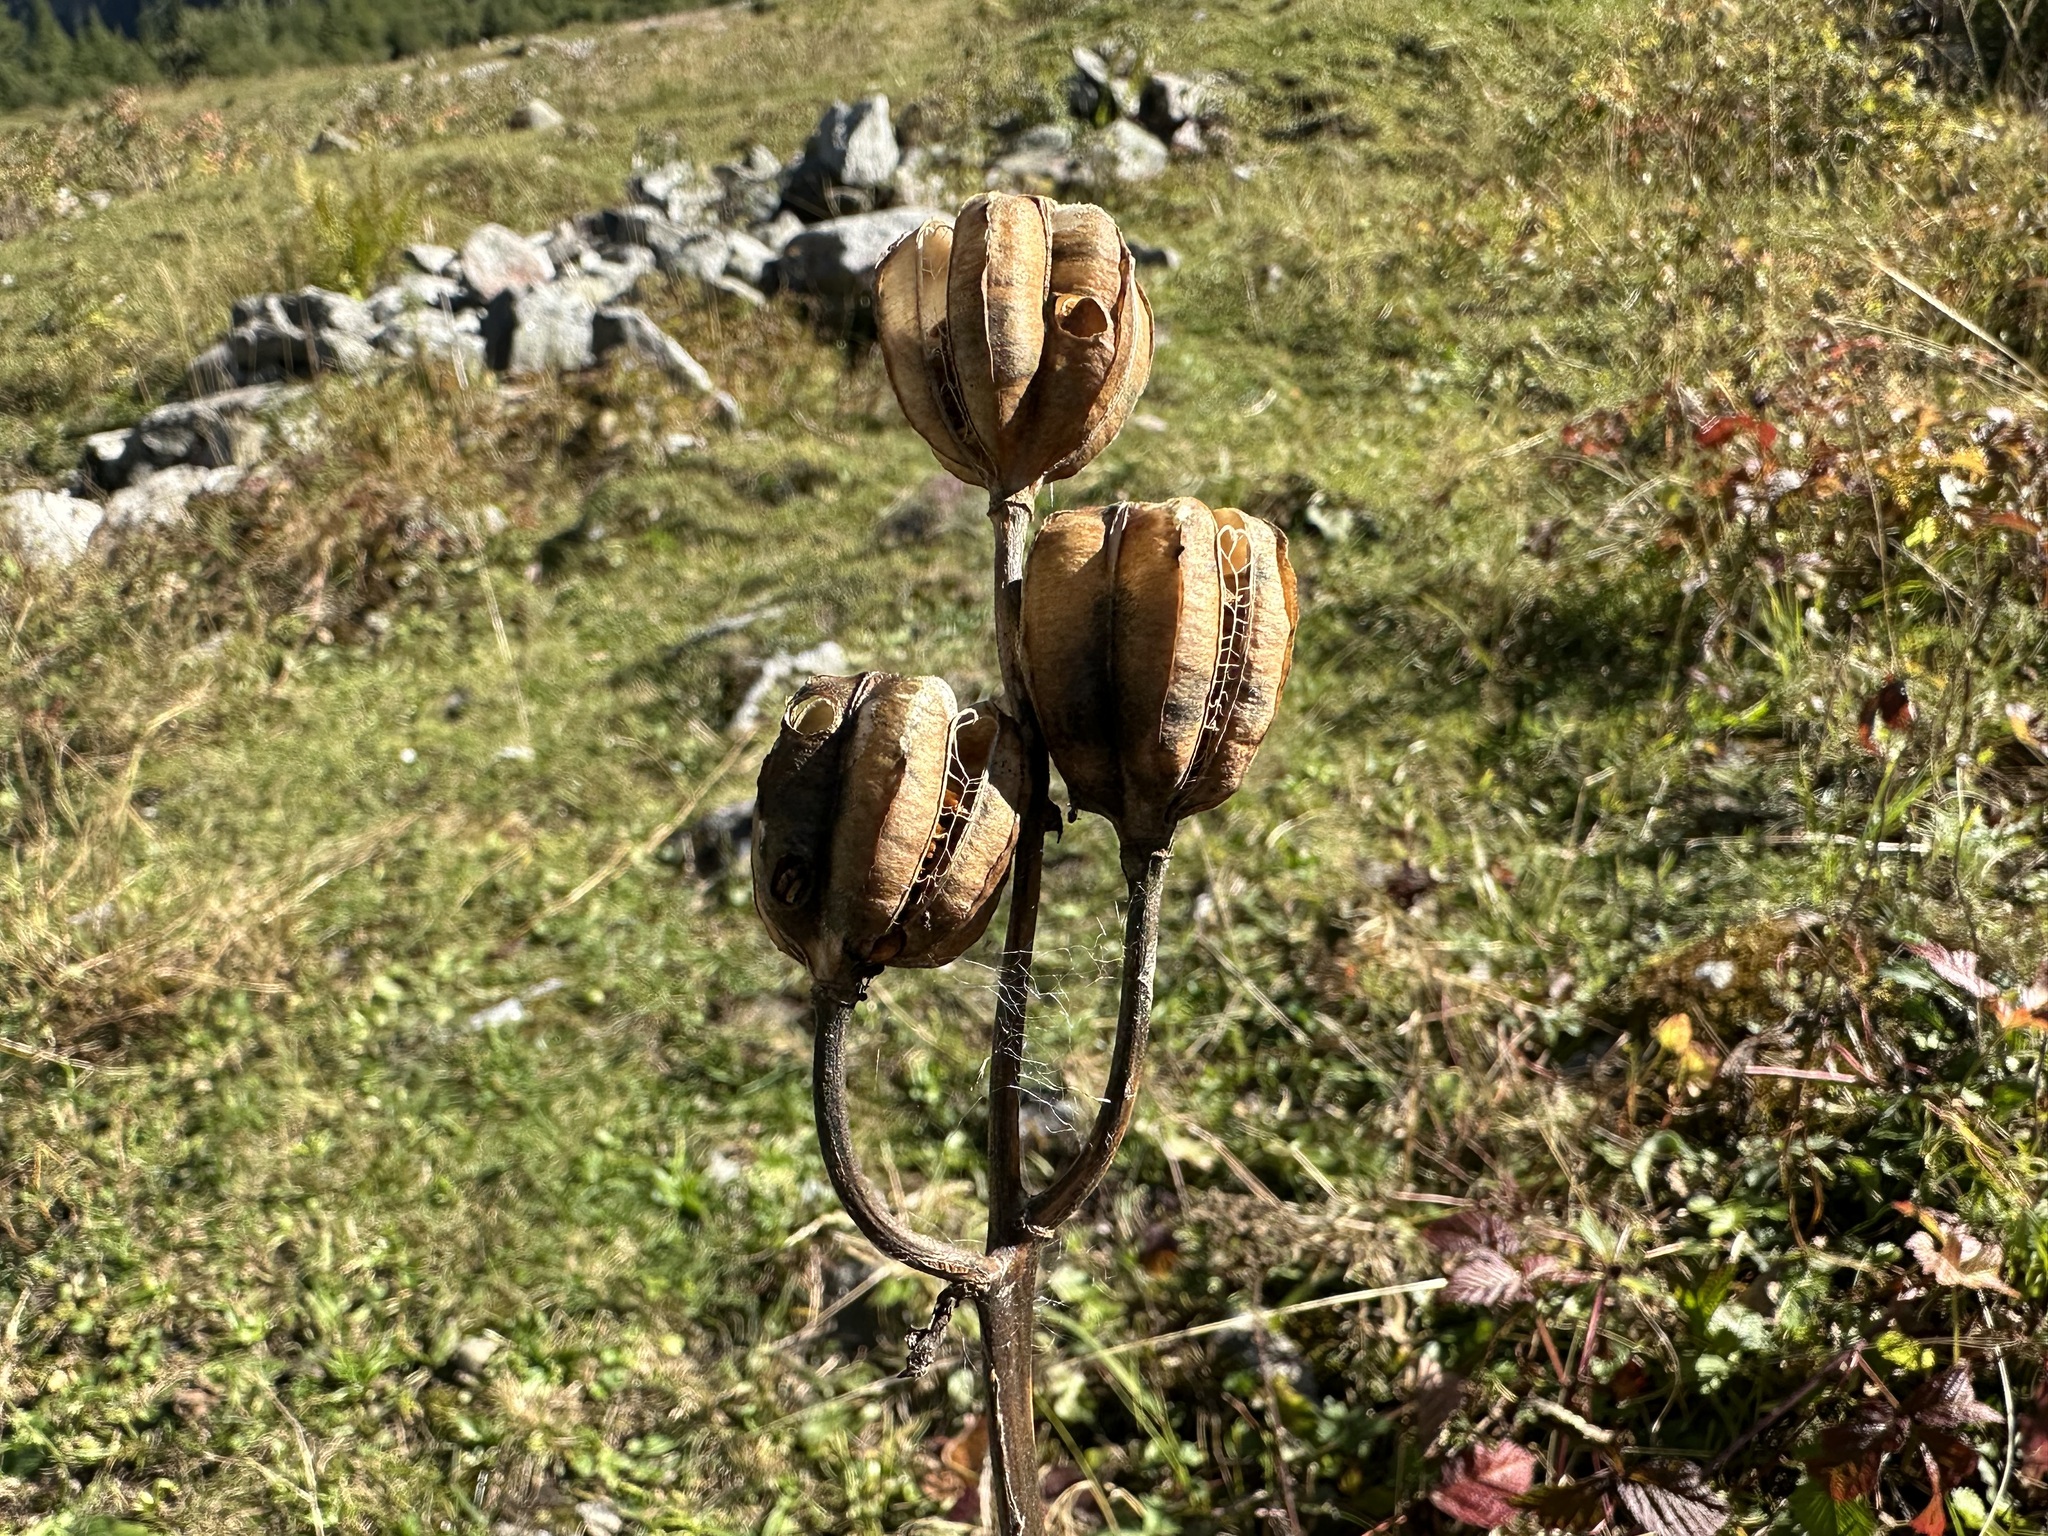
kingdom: Plantae
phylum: Tracheophyta
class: Liliopsida
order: Liliales
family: Liliaceae
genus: Lilium
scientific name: Lilium martagon
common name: Martagon lily
